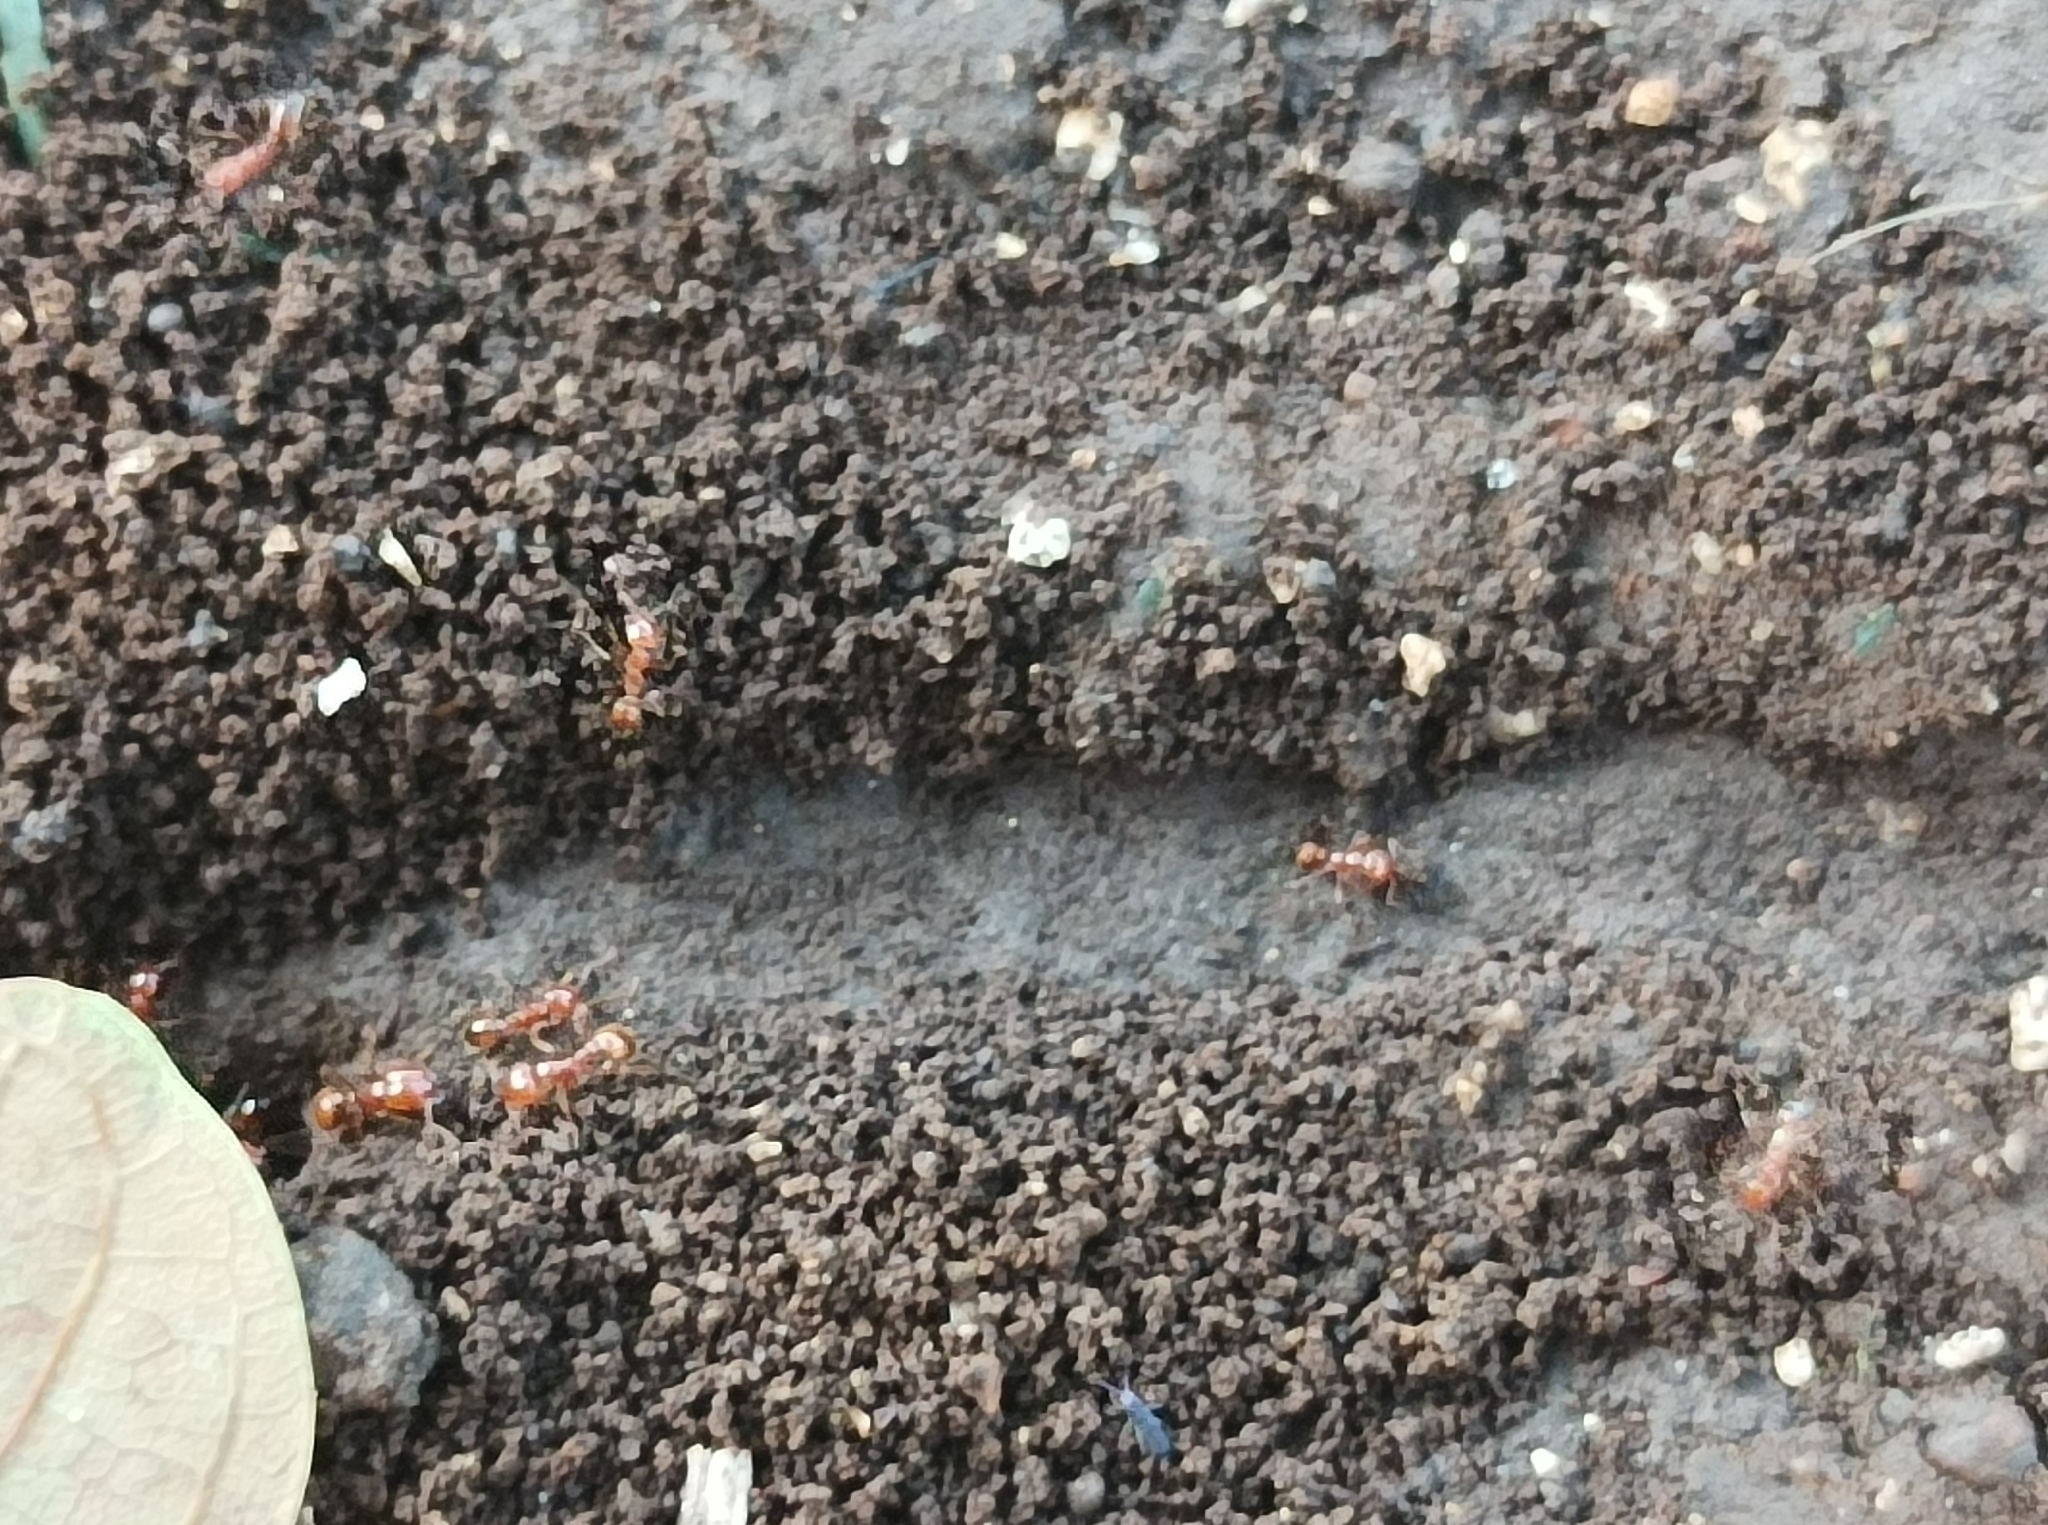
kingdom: Animalia
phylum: Arthropoda
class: Insecta
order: Hymenoptera
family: Formicidae
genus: Solenopsis
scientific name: Solenopsis geminata
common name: Tropical fire ant
